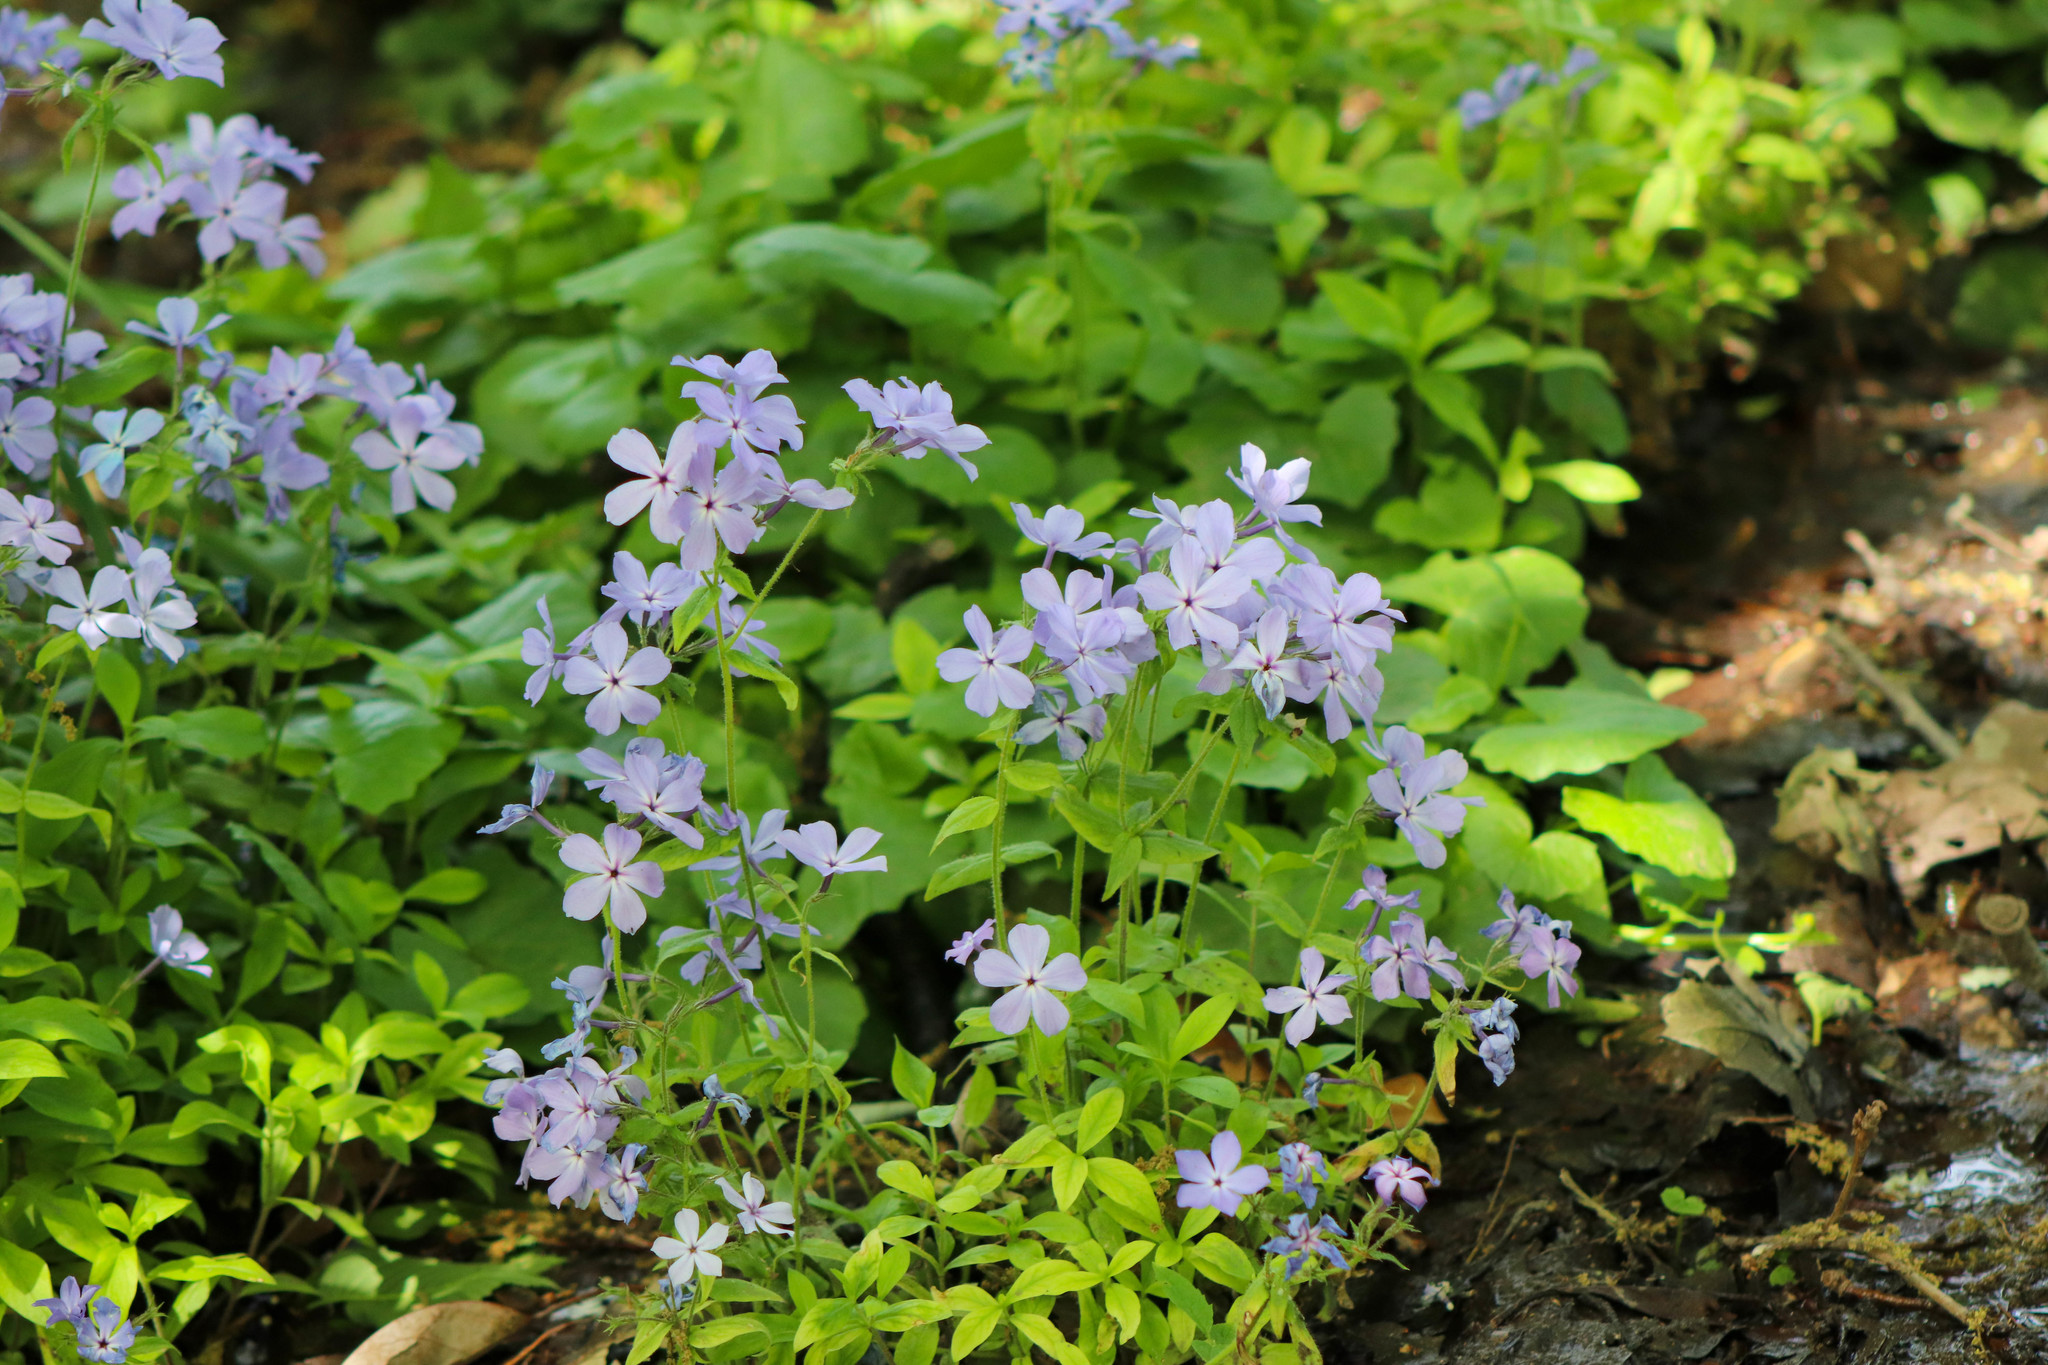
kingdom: Plantae
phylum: Tracheophyta
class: Magnoliopsida
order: Ericales
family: Polemoniaceae
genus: Phlox
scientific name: Phlox divaricata
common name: Blue phlox
